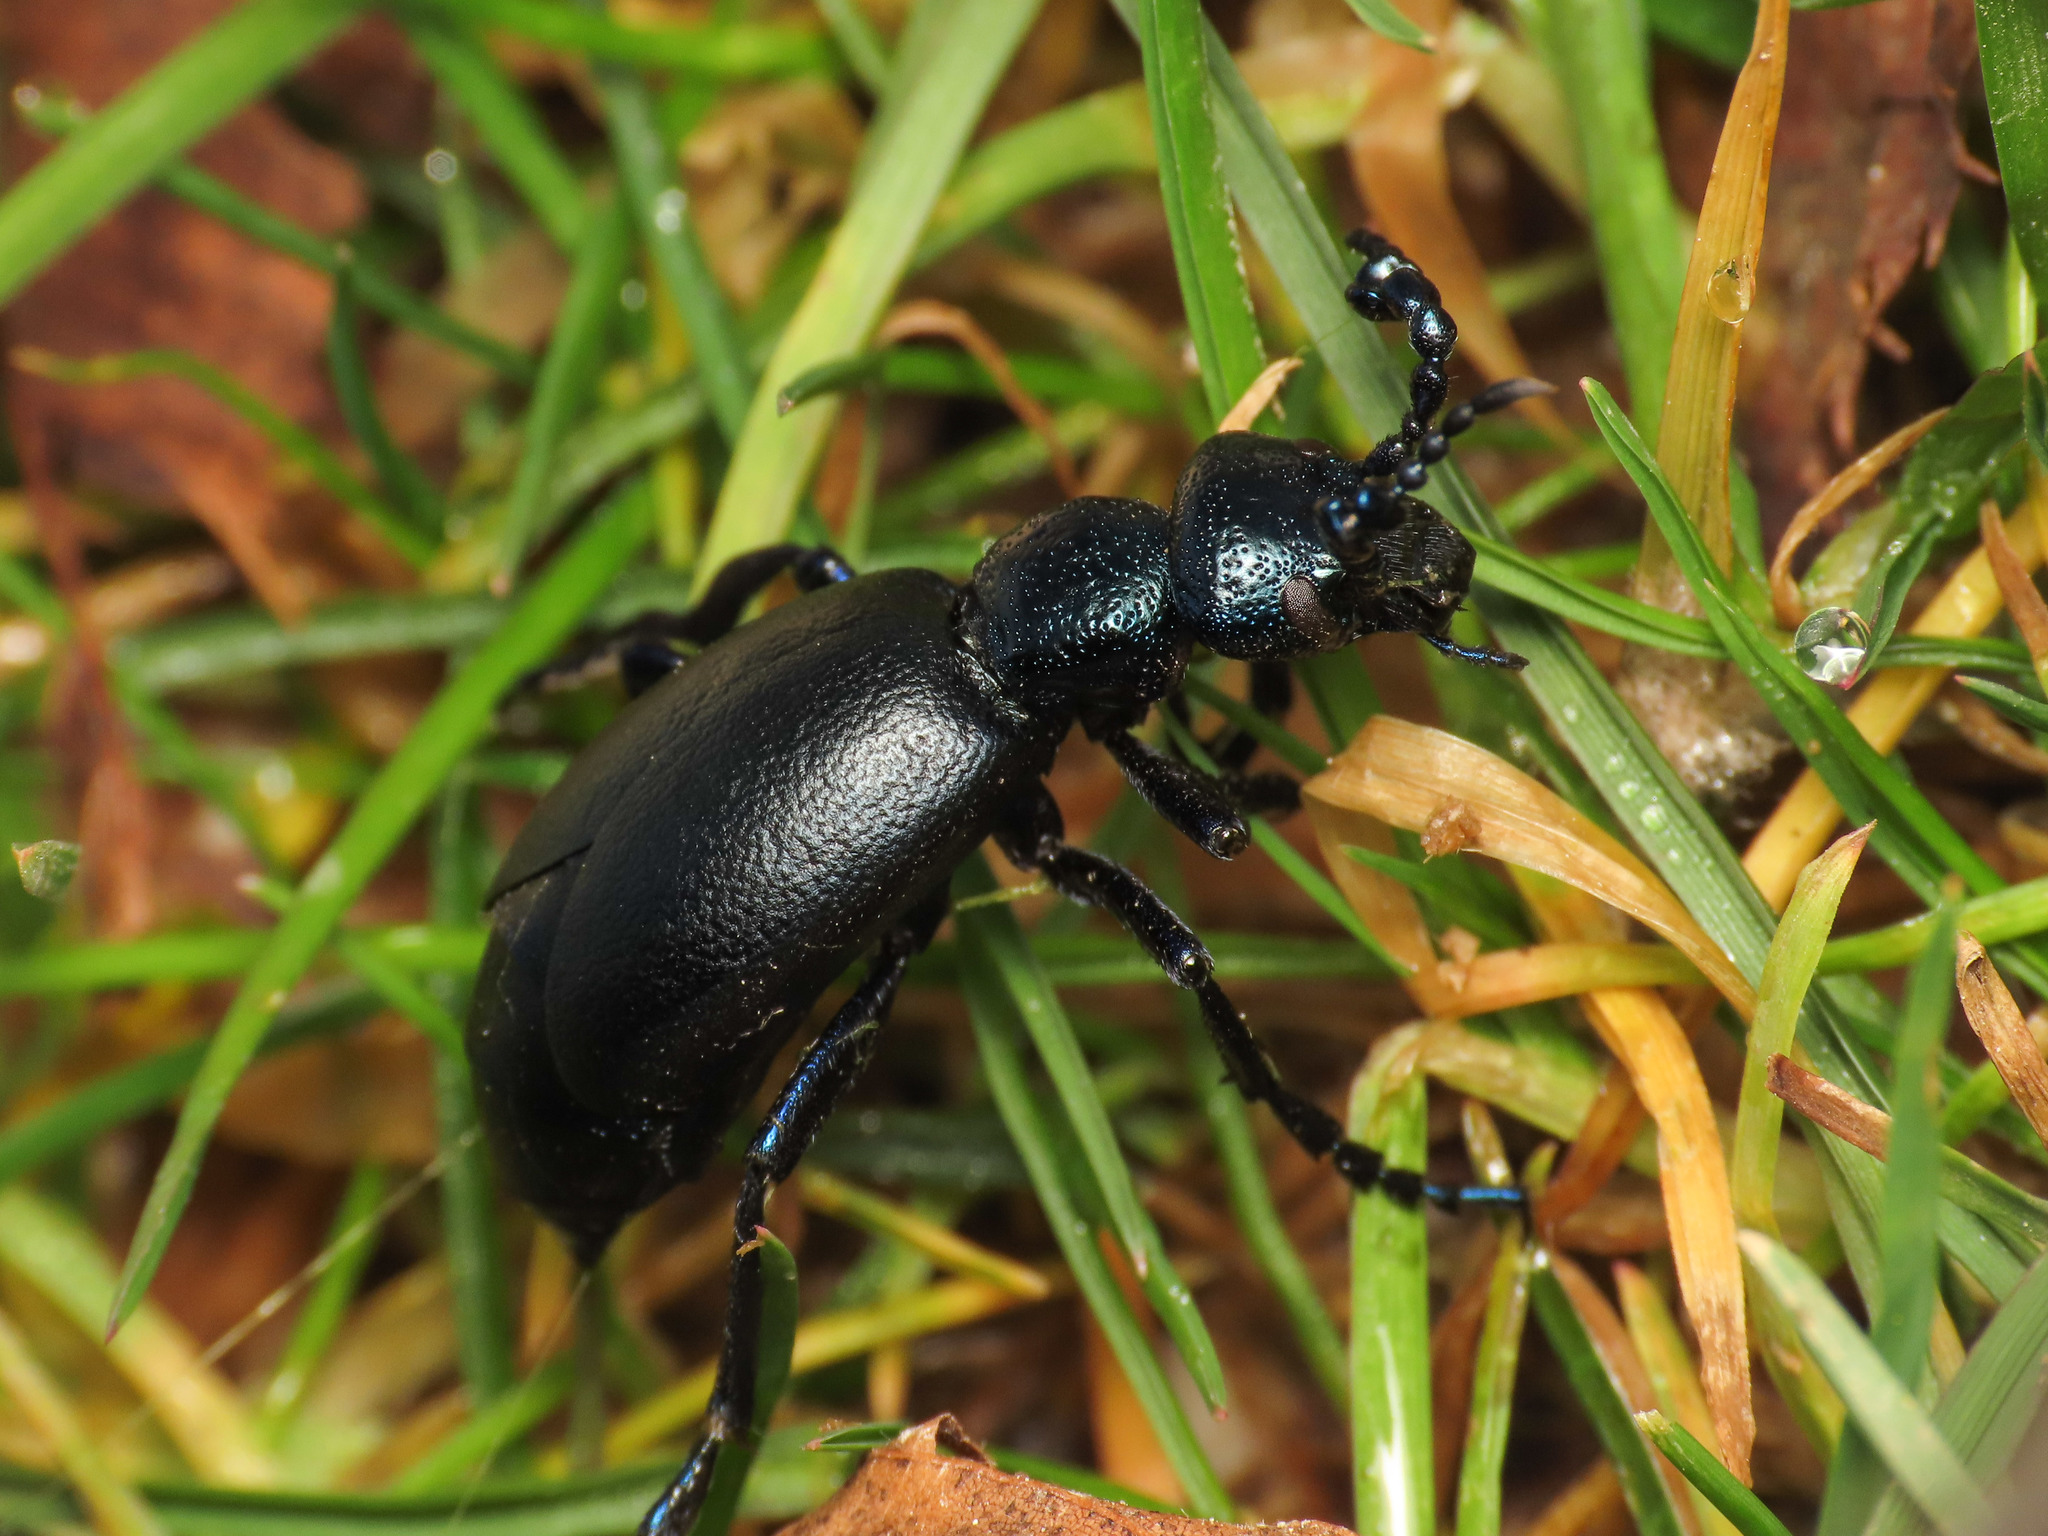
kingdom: Animalia
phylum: Arthropoda
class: Insecta
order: Coleoptera
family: Meloidae
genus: Meloe
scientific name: Meloe proscarabaeus
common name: Black oil-beetle
